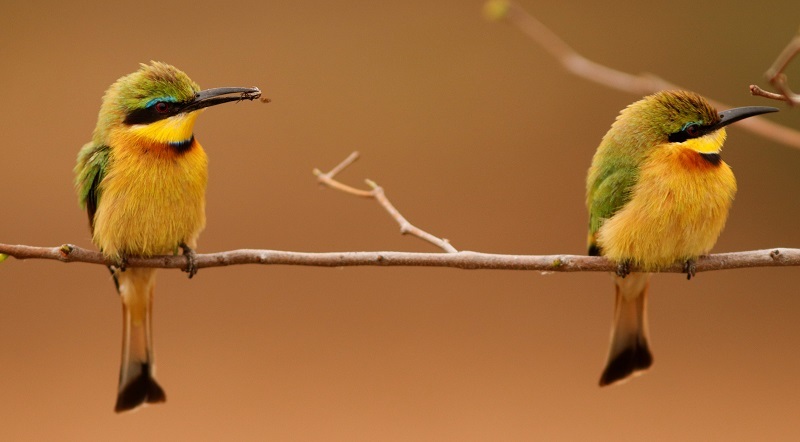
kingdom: Animalia
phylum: Chordata
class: Aves
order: Coraciiformes
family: Meropidae
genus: Merops
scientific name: Merops pusillus
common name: Little bee-eater
